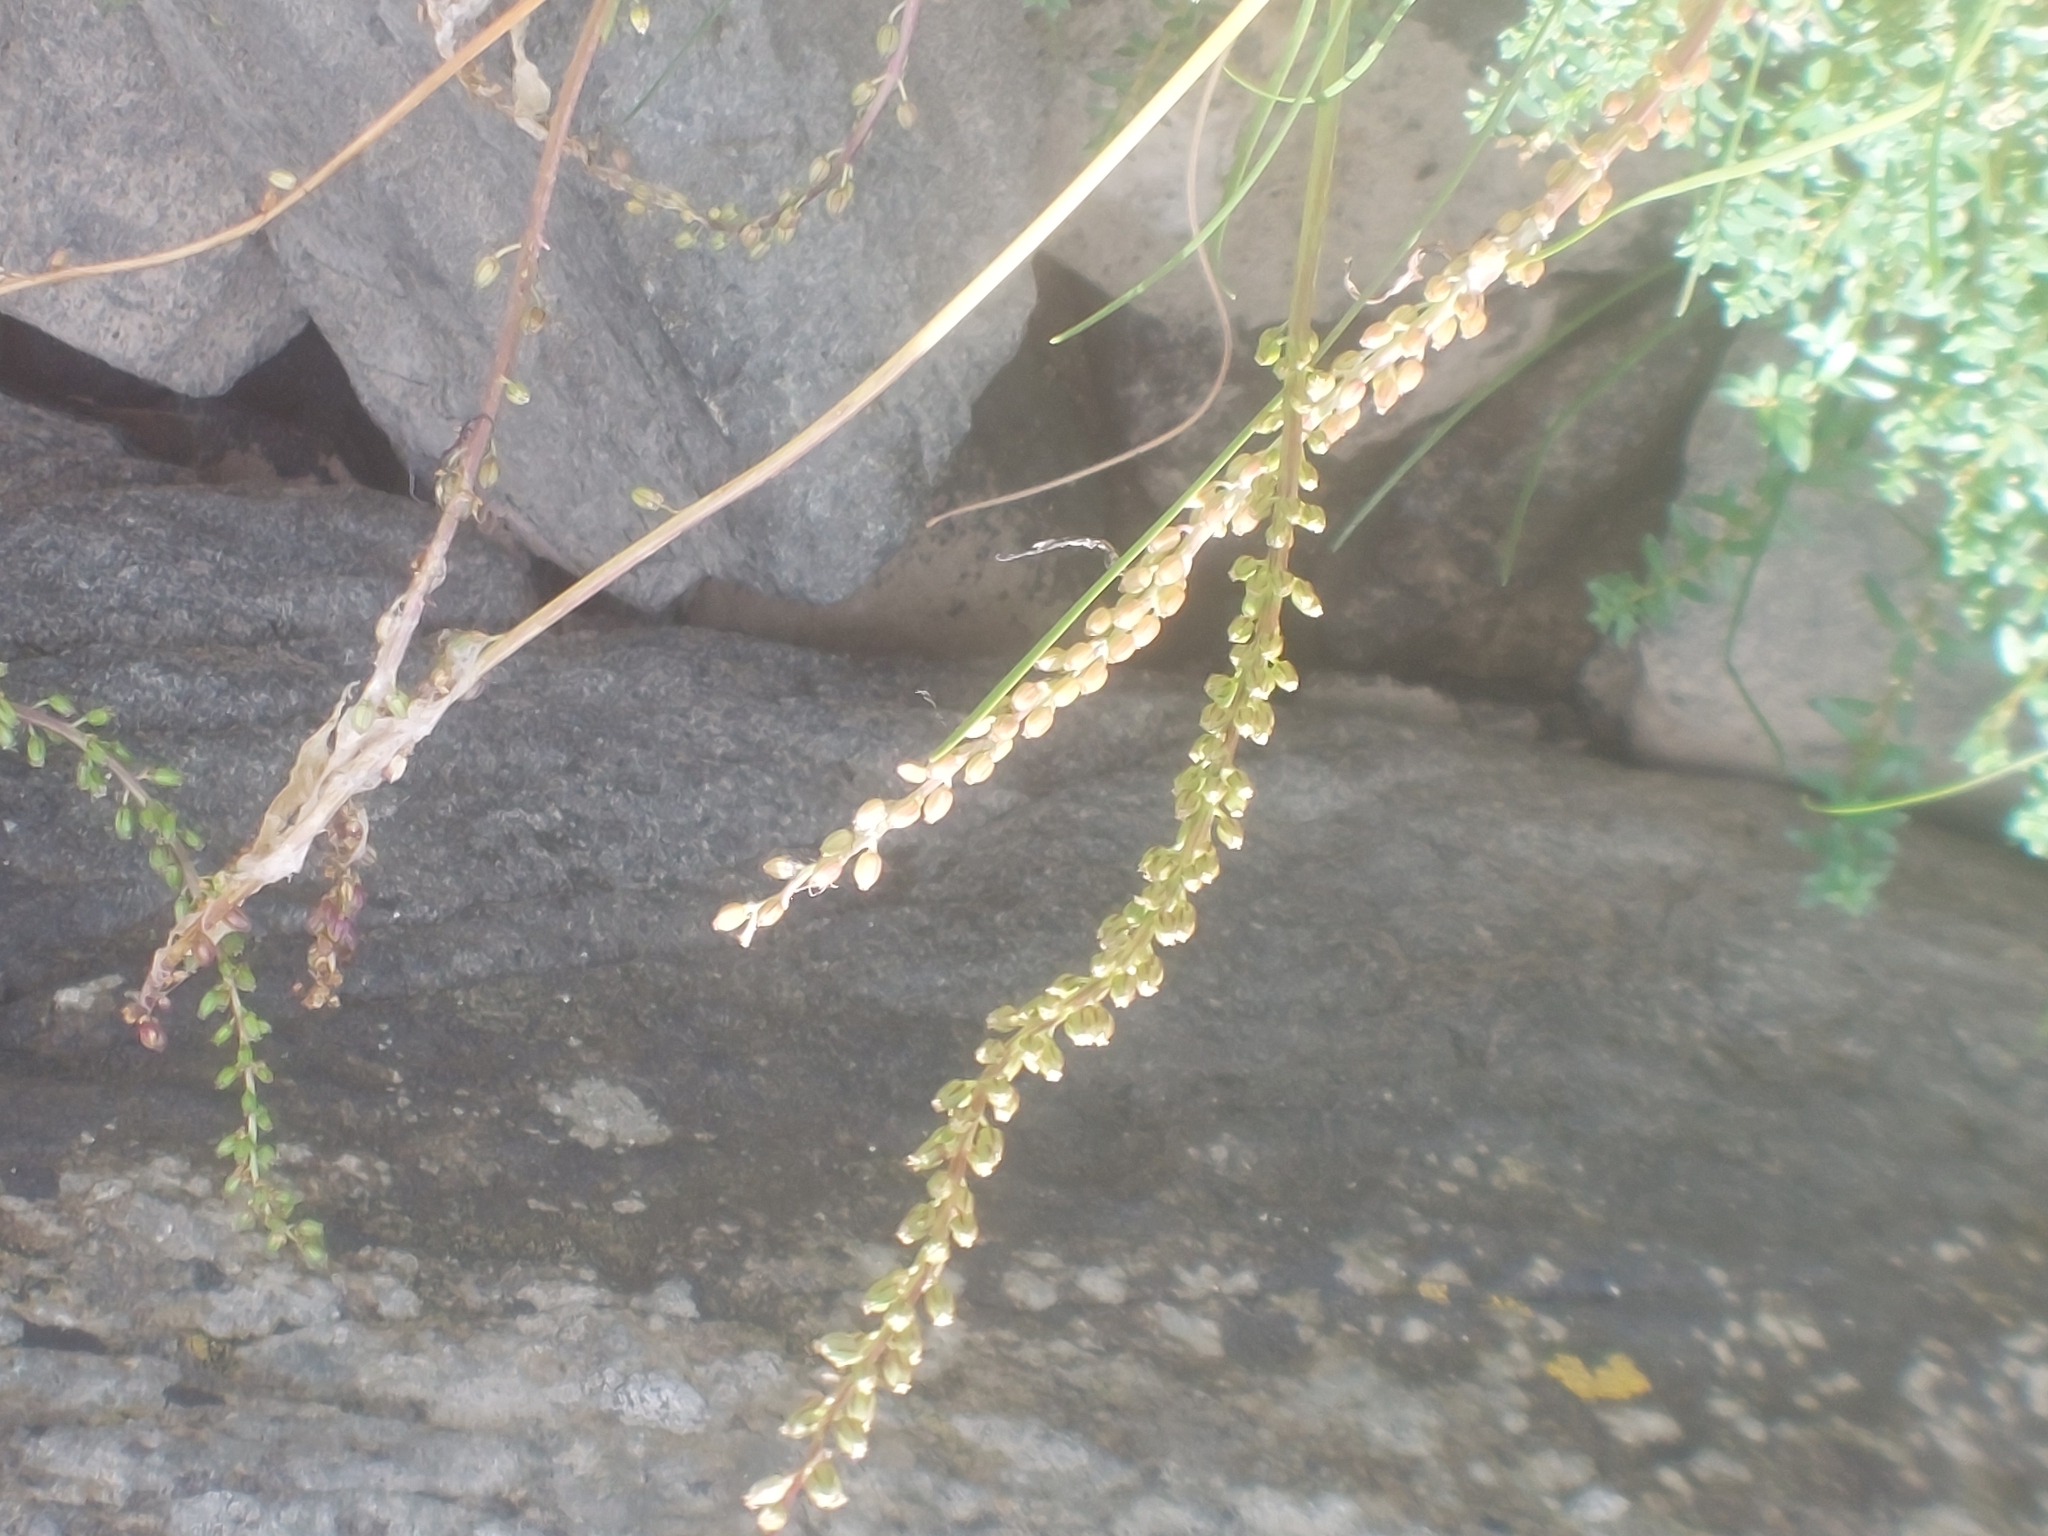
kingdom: Plantae
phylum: Tracheophyta
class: Liliopsida
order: Alismatales
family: Juncaginaceae
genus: Triglochin
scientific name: Triglochin maritima
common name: Sea arrowgrass
